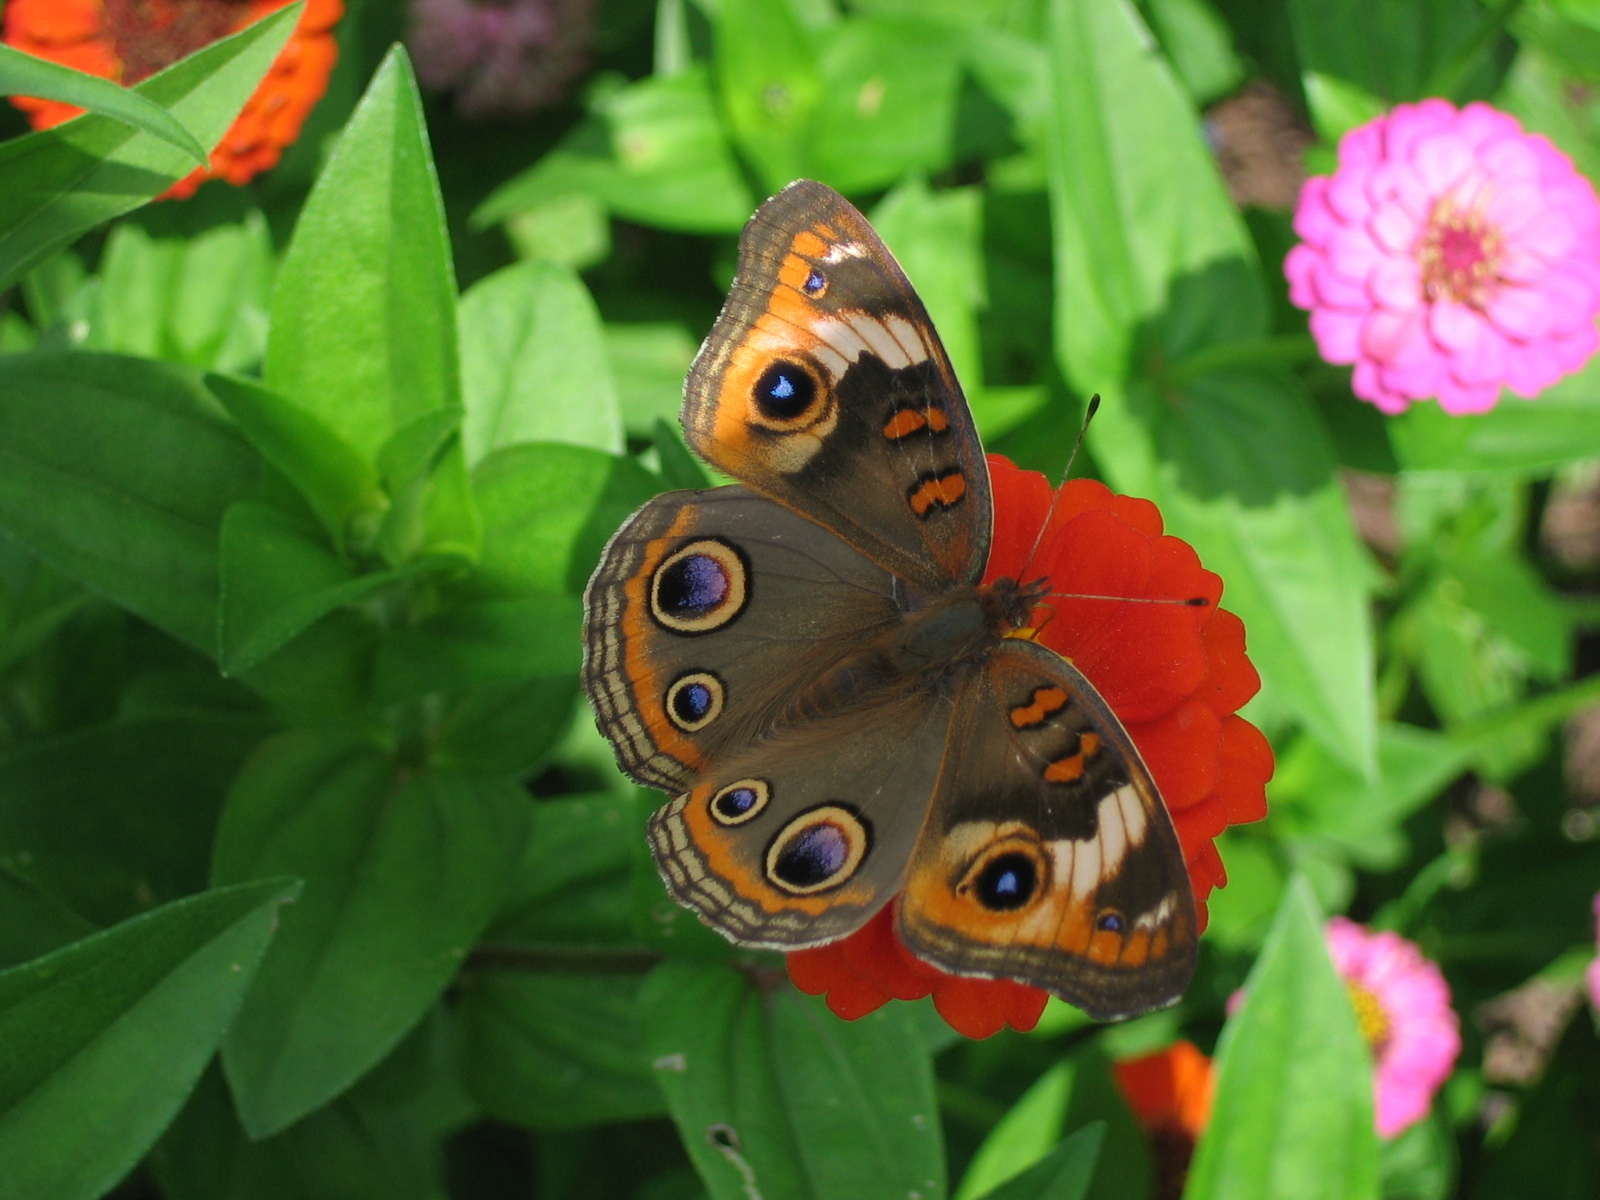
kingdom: Animalia
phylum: Arthropoda
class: Insecta
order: Lepidoptera
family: Nymphalidae
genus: Junonia
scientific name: Junonia coenia
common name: Common buckeye
